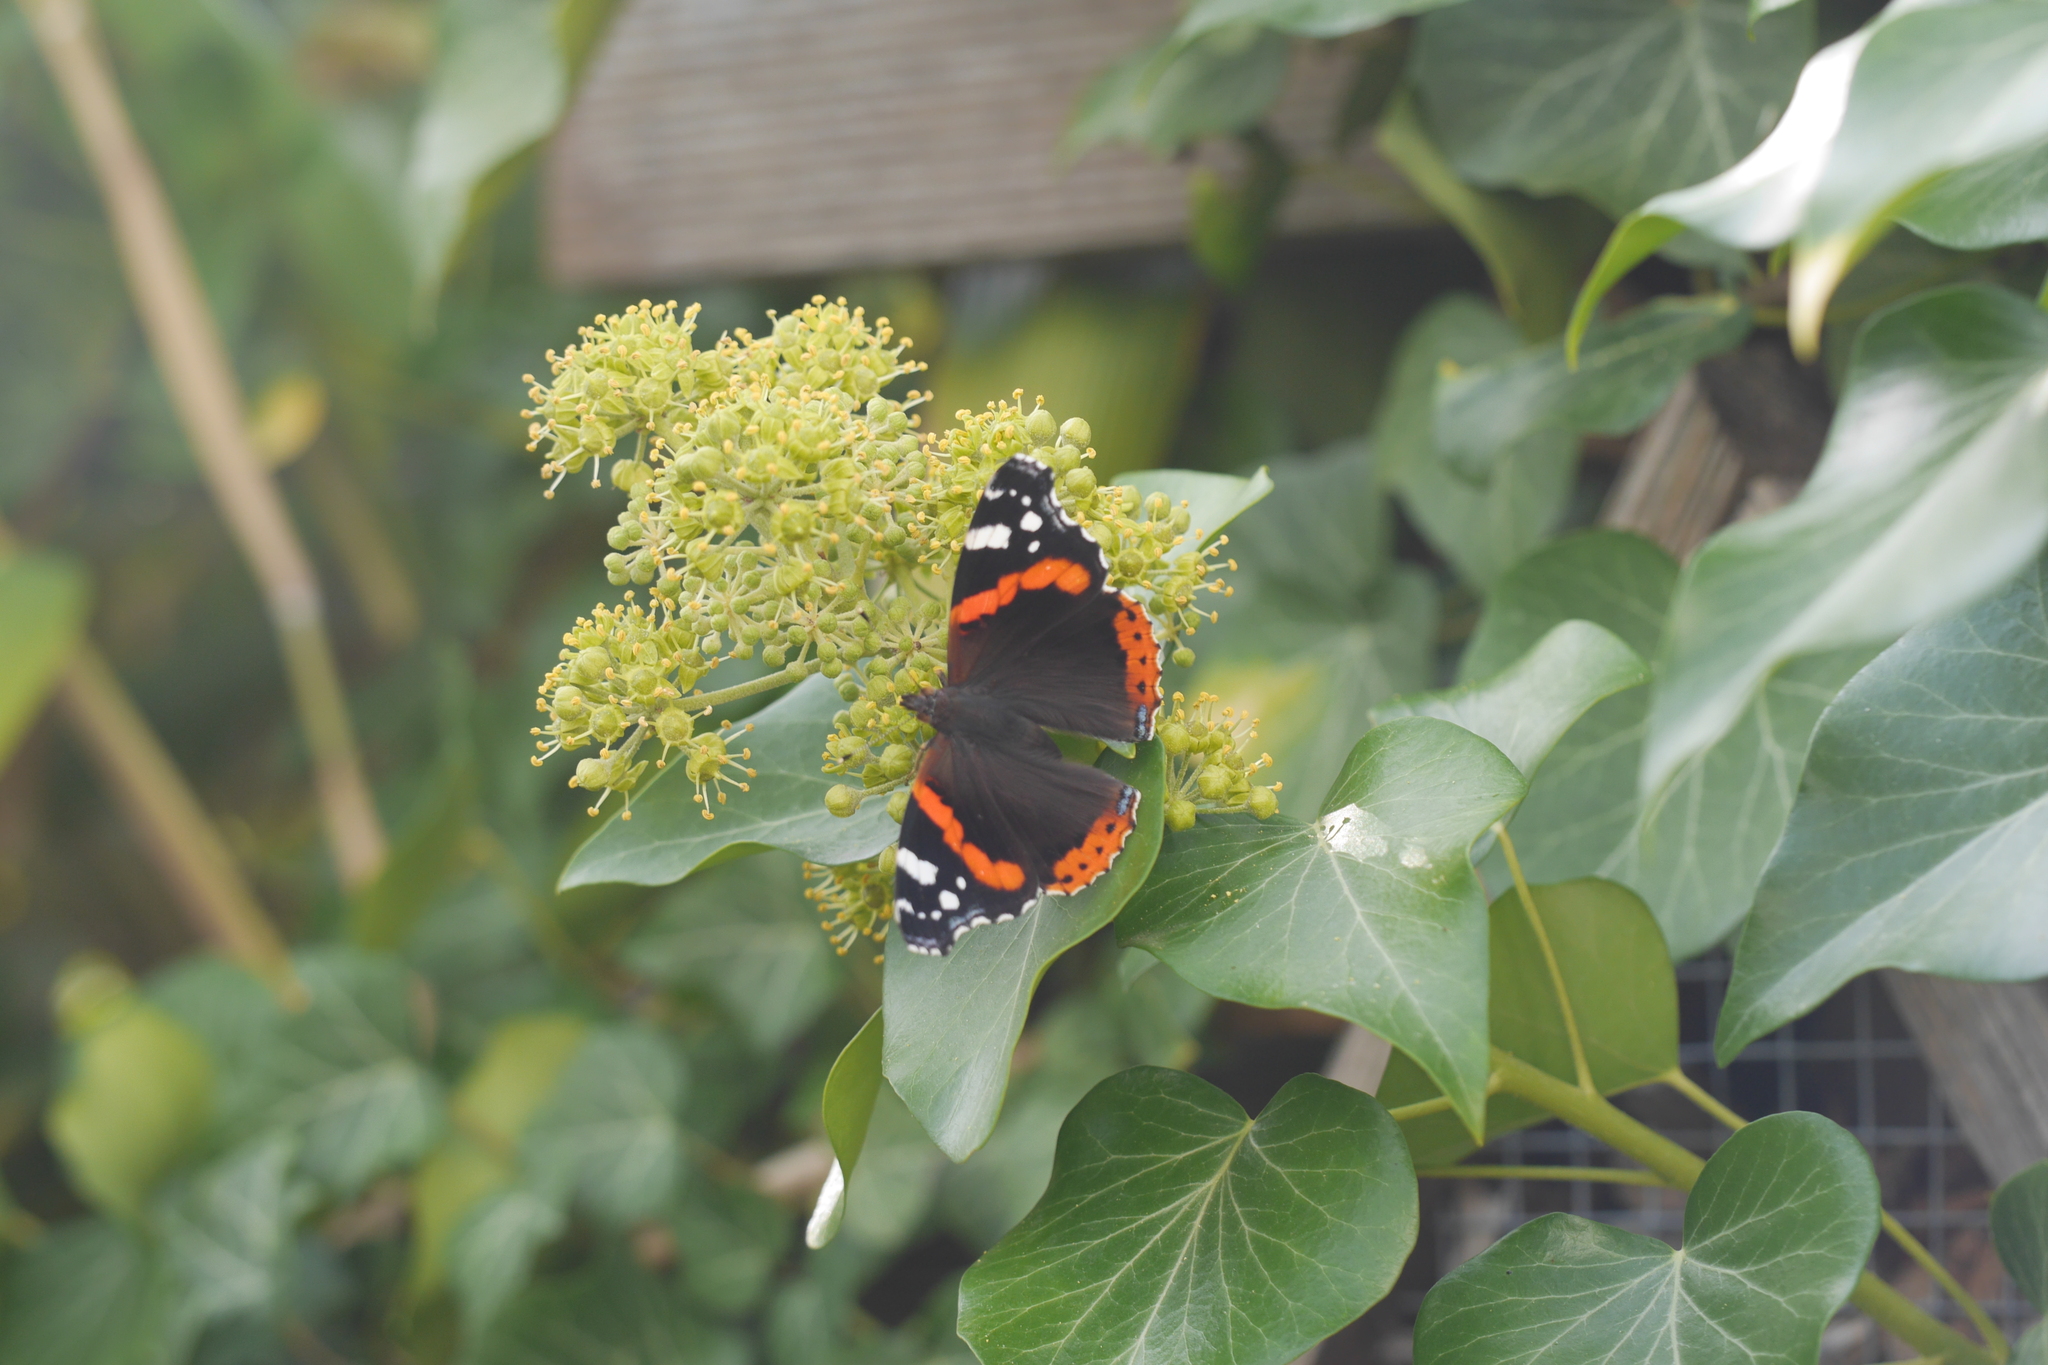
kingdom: Animalia
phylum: Arthropoda
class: Insecta
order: Lepidoptera
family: Nymphalidae
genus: Vanessa
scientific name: Vanessa atalanta
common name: Red admiral
